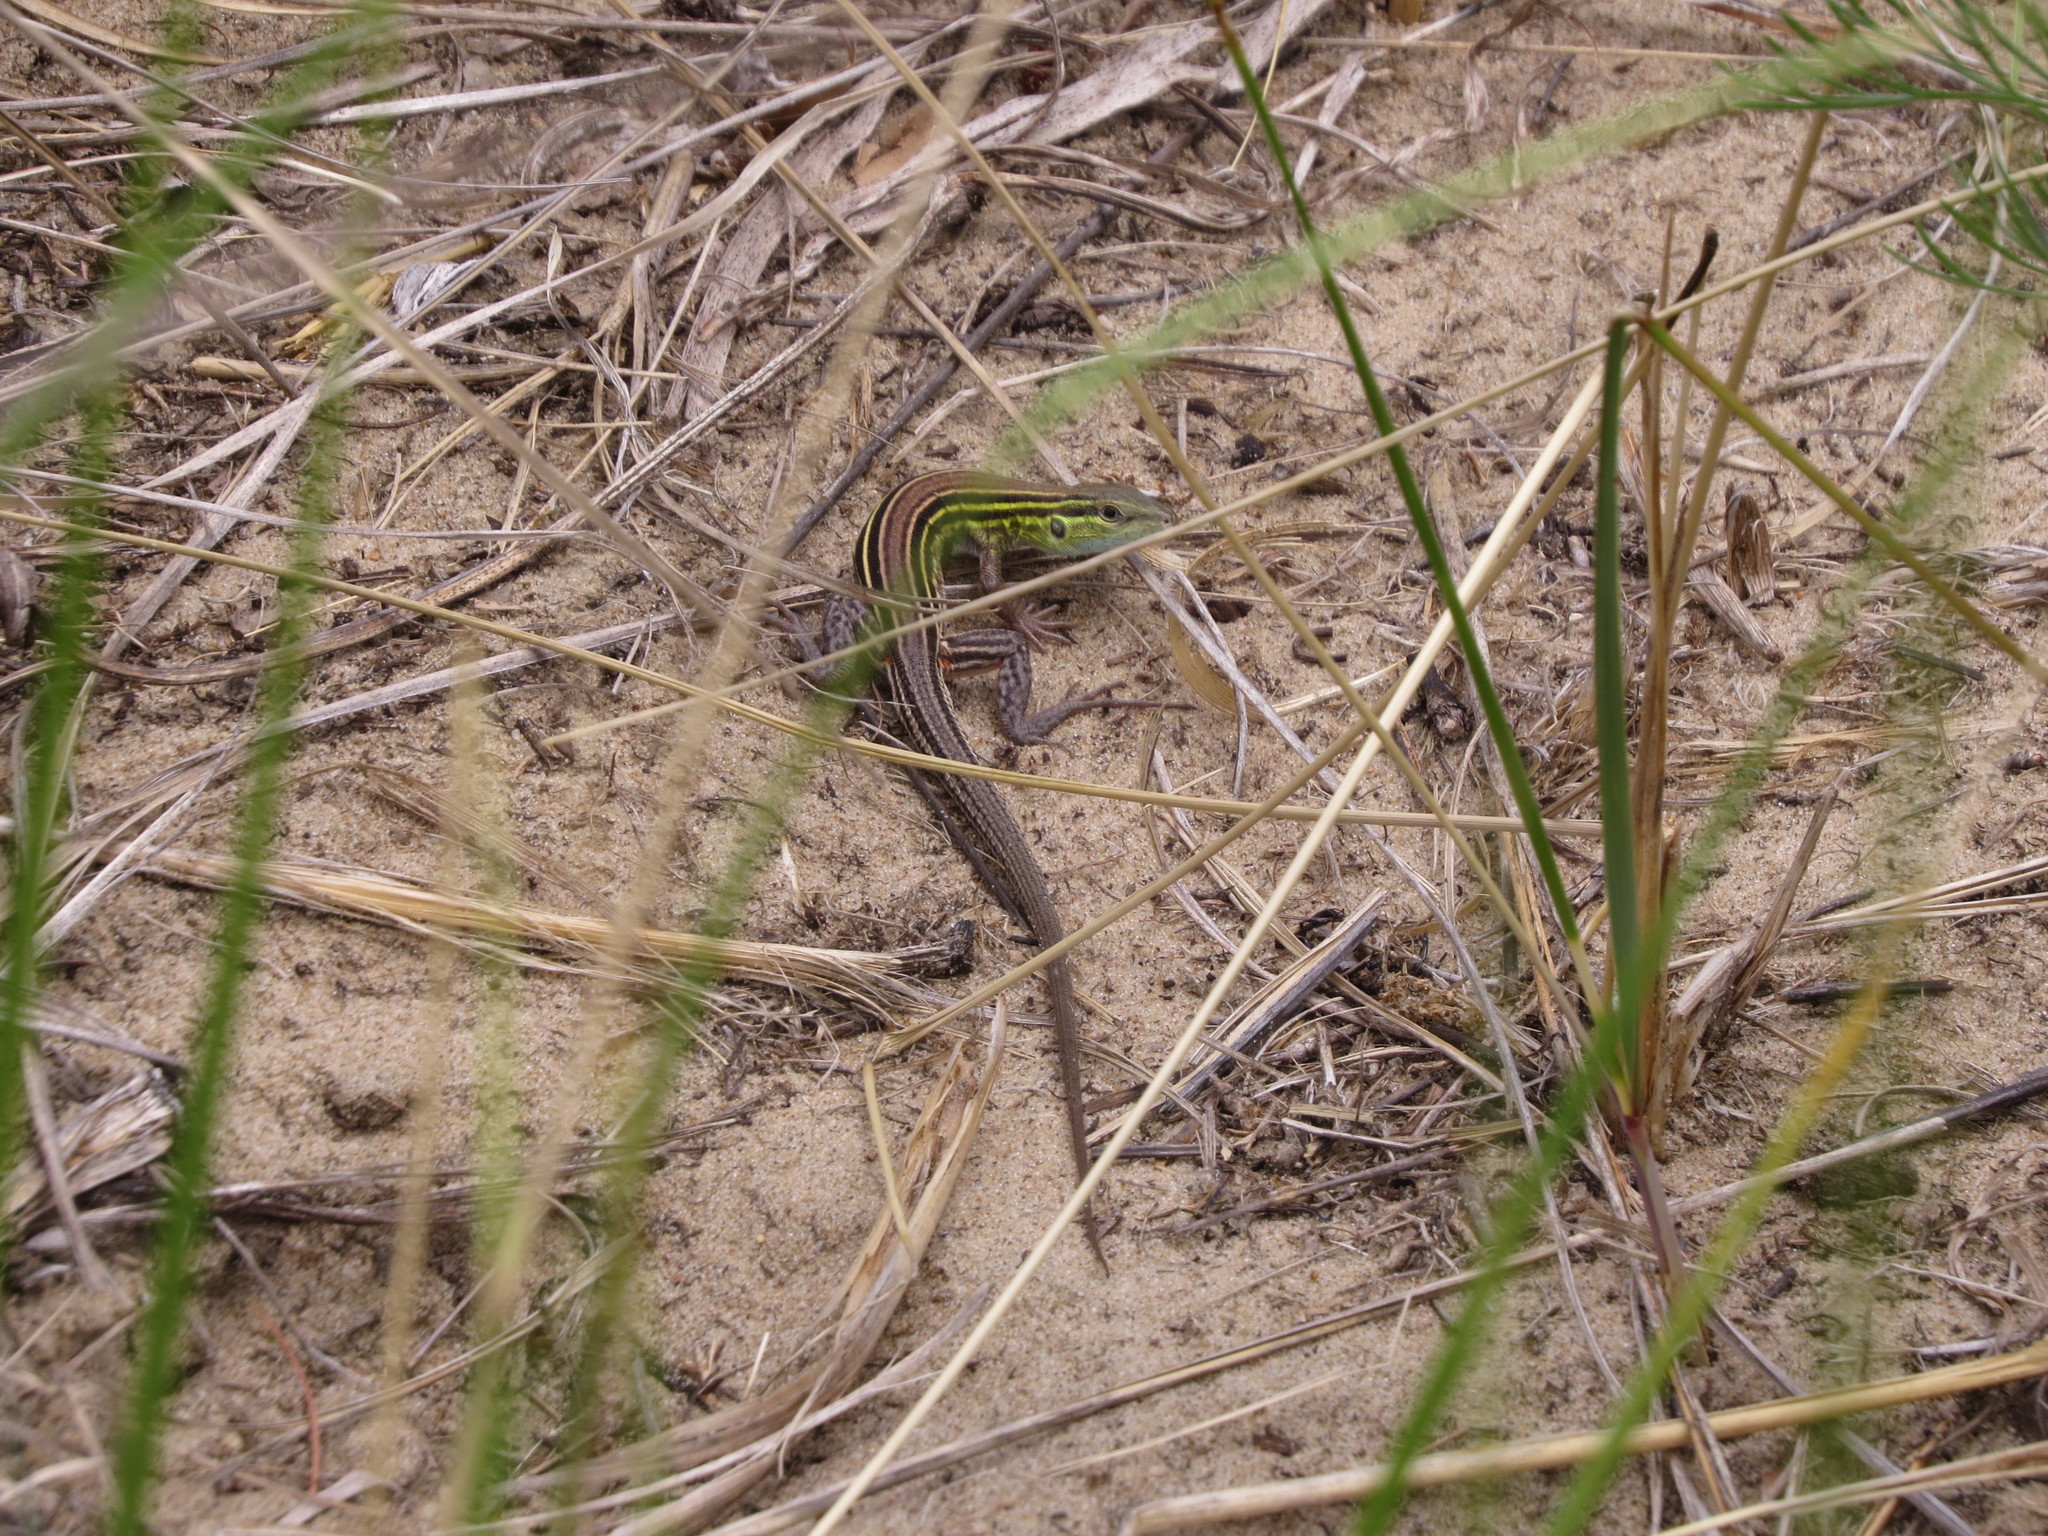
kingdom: Animalia
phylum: Chordata
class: Squamata
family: Teiidae
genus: Aspidoscelis
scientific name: Aspidoscelis sexlineatus
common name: Six-lined racerunner
